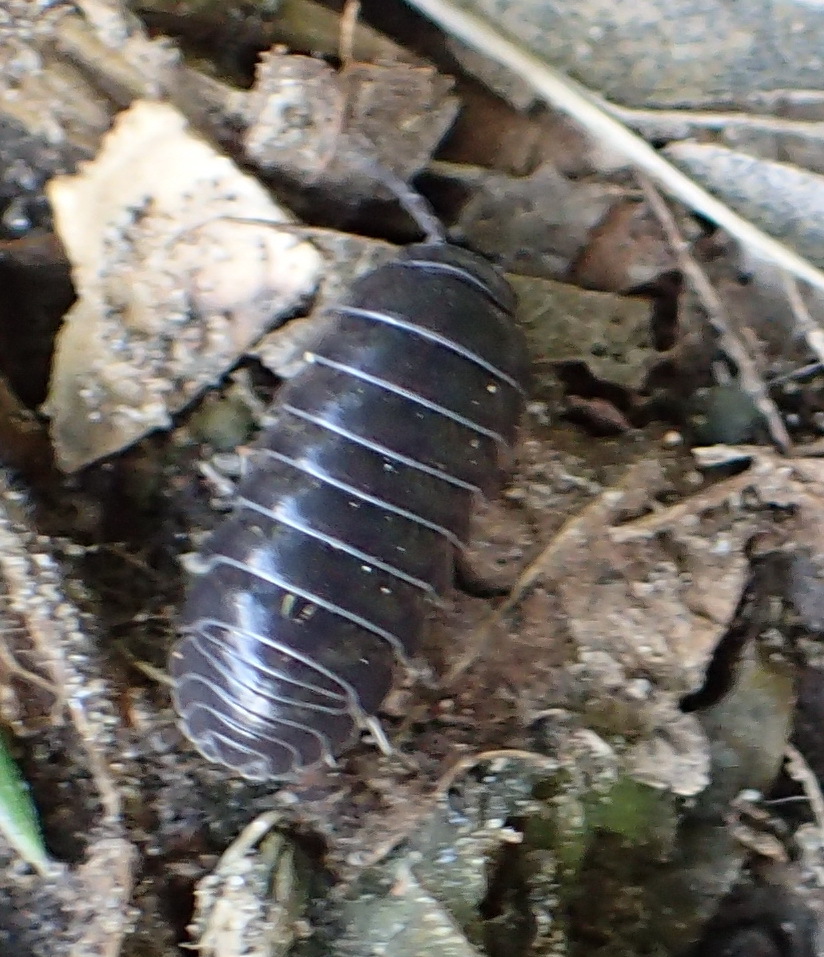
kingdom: Animalia
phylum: Arthropoda
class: Malacostraca
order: Isopoda
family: Armadillidiidae
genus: Armadillidium
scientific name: Armadillidium vulgare
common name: Common pill woodlouse
